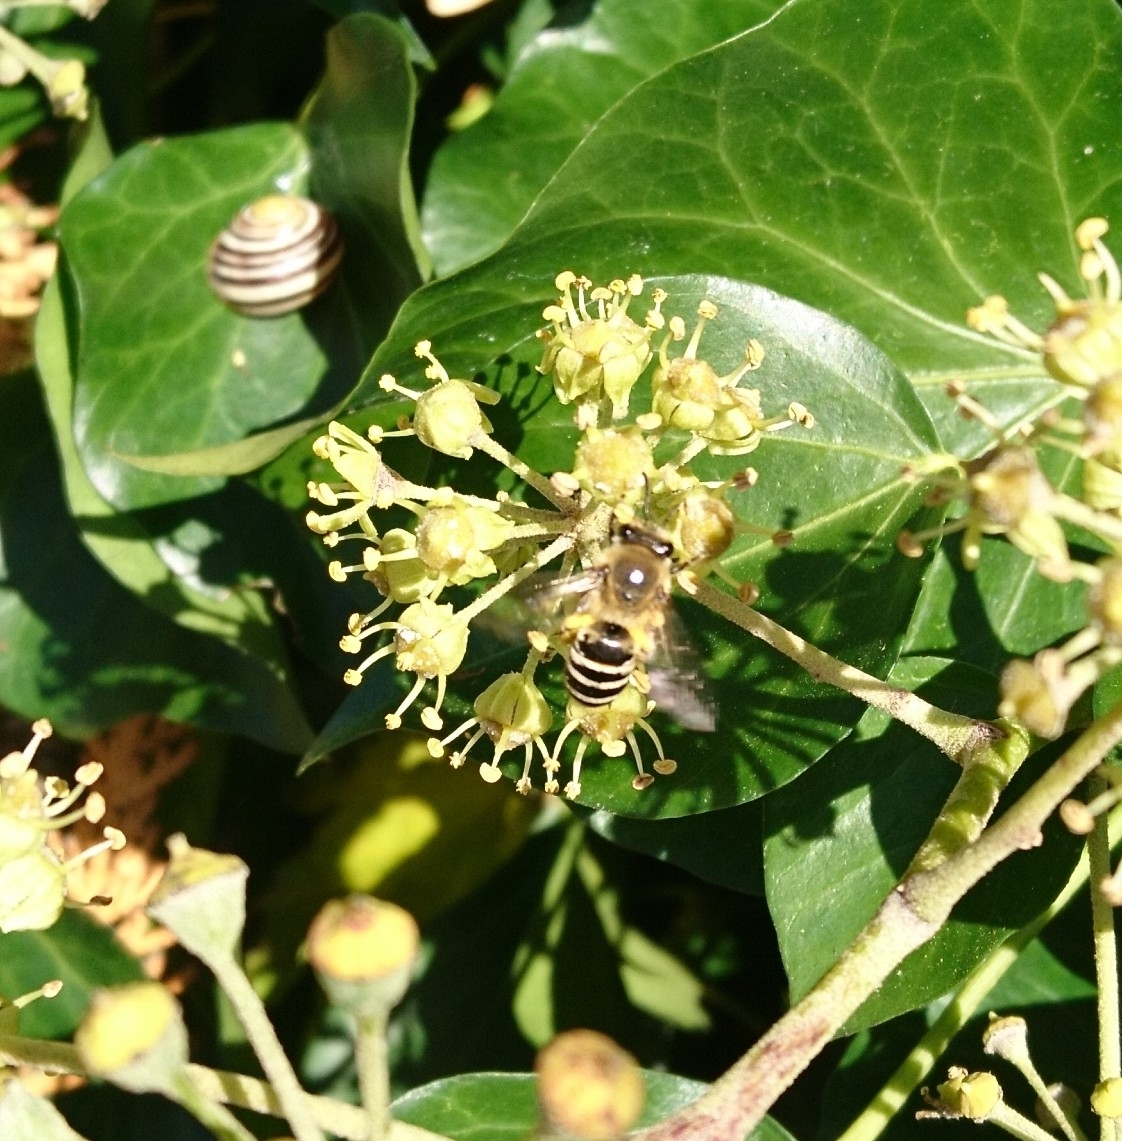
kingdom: Animalia
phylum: Arthropoda
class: Insecta
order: Hymenoptera
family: Colletidae
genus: Colletes
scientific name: Colletes hederae
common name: Ivy bee
